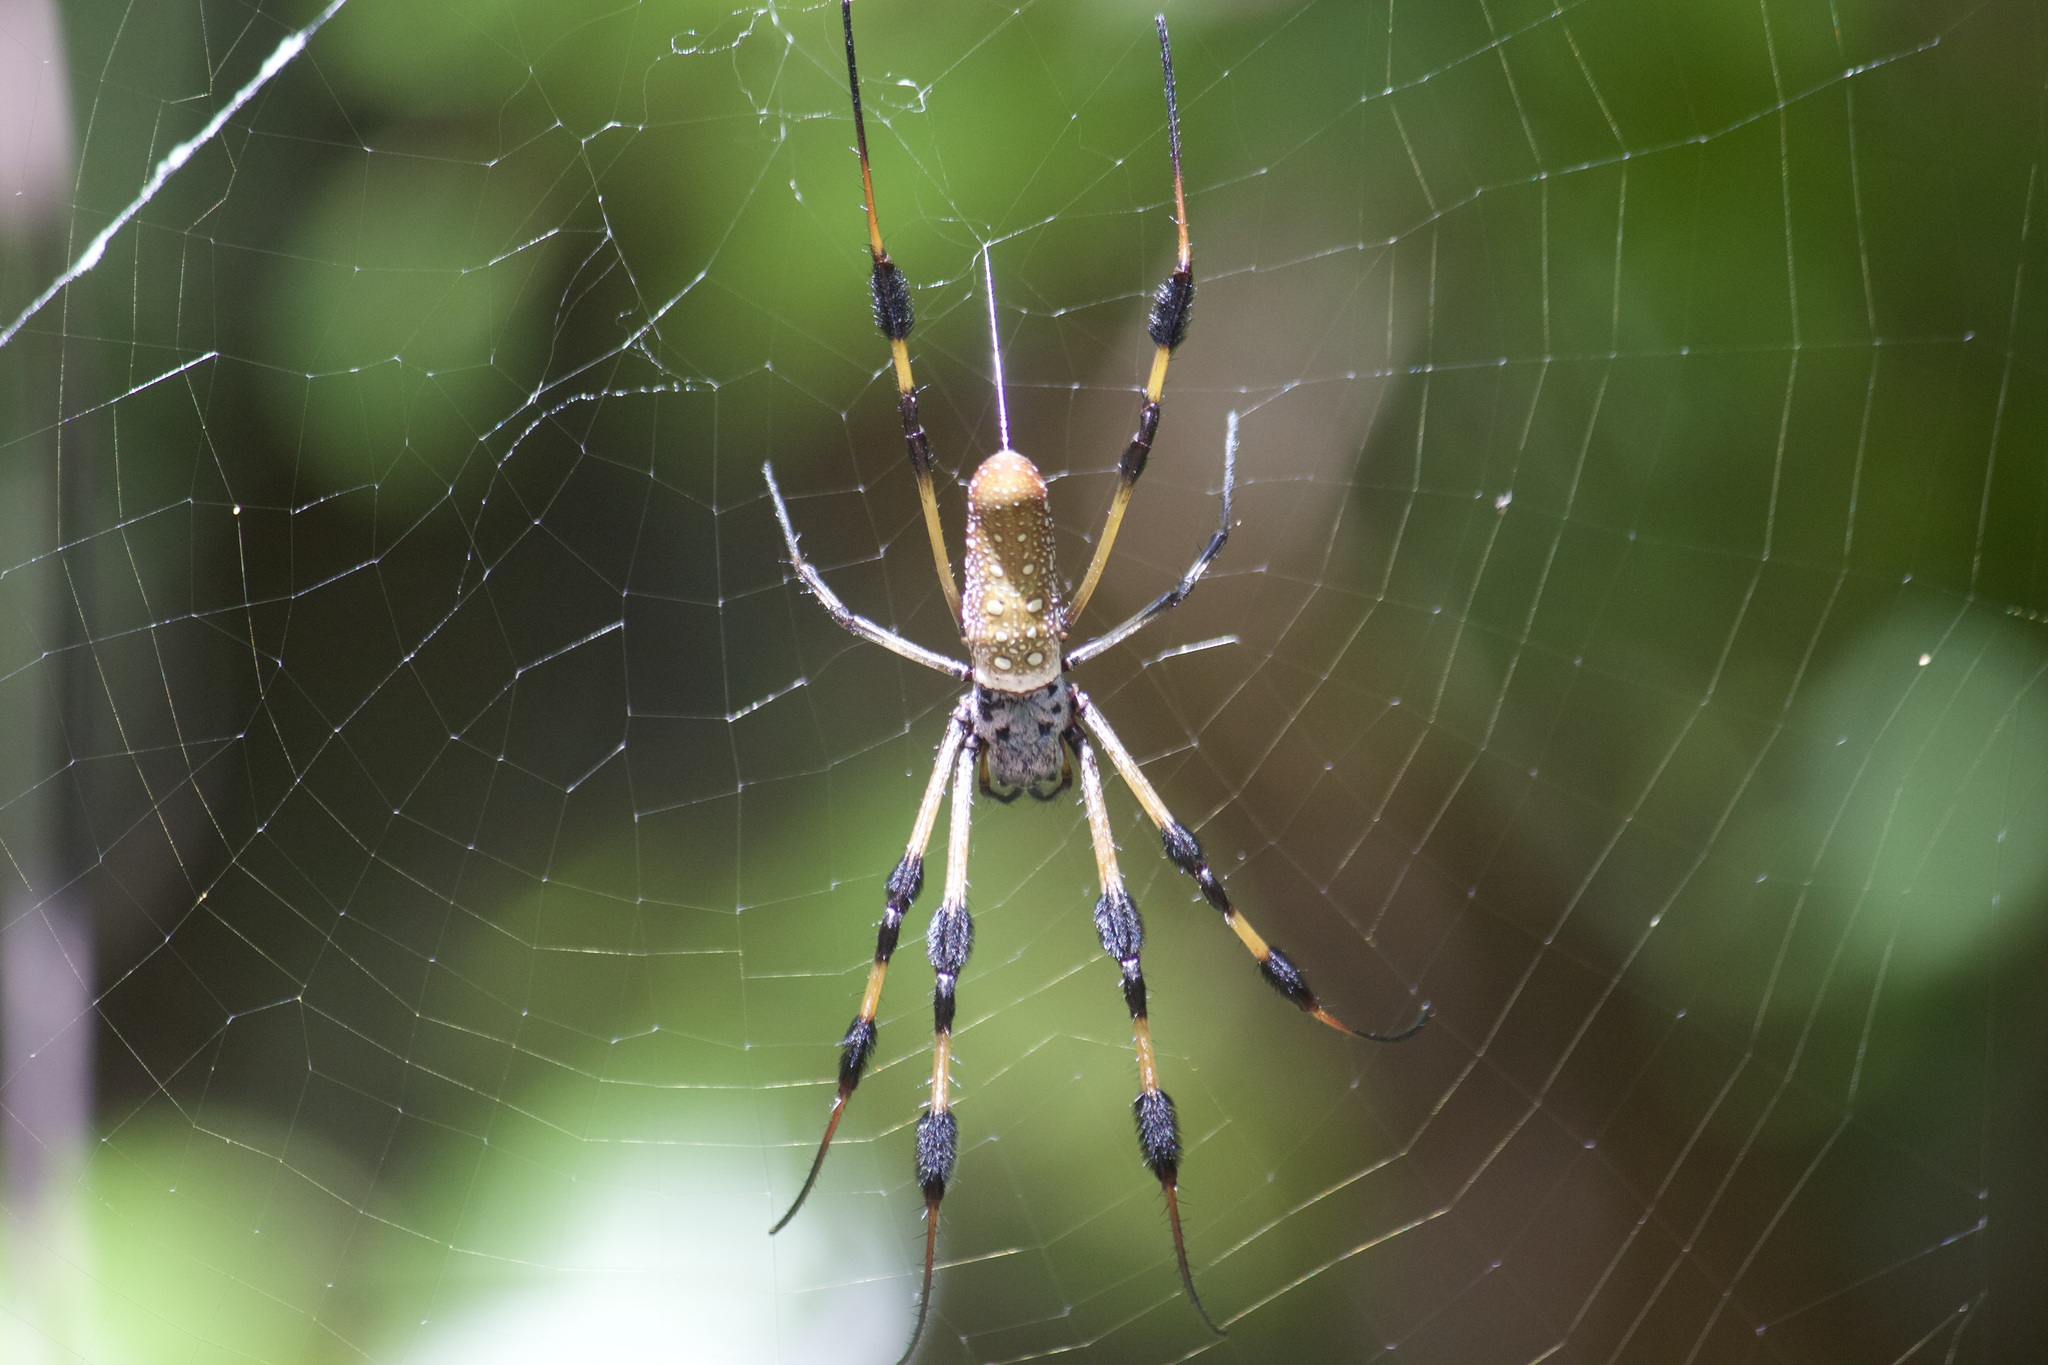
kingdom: Animalia
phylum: Arthropoda
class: Arachnida
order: Araneae
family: Araneidae
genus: Trichonephila
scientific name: Trichonephila clavipes
